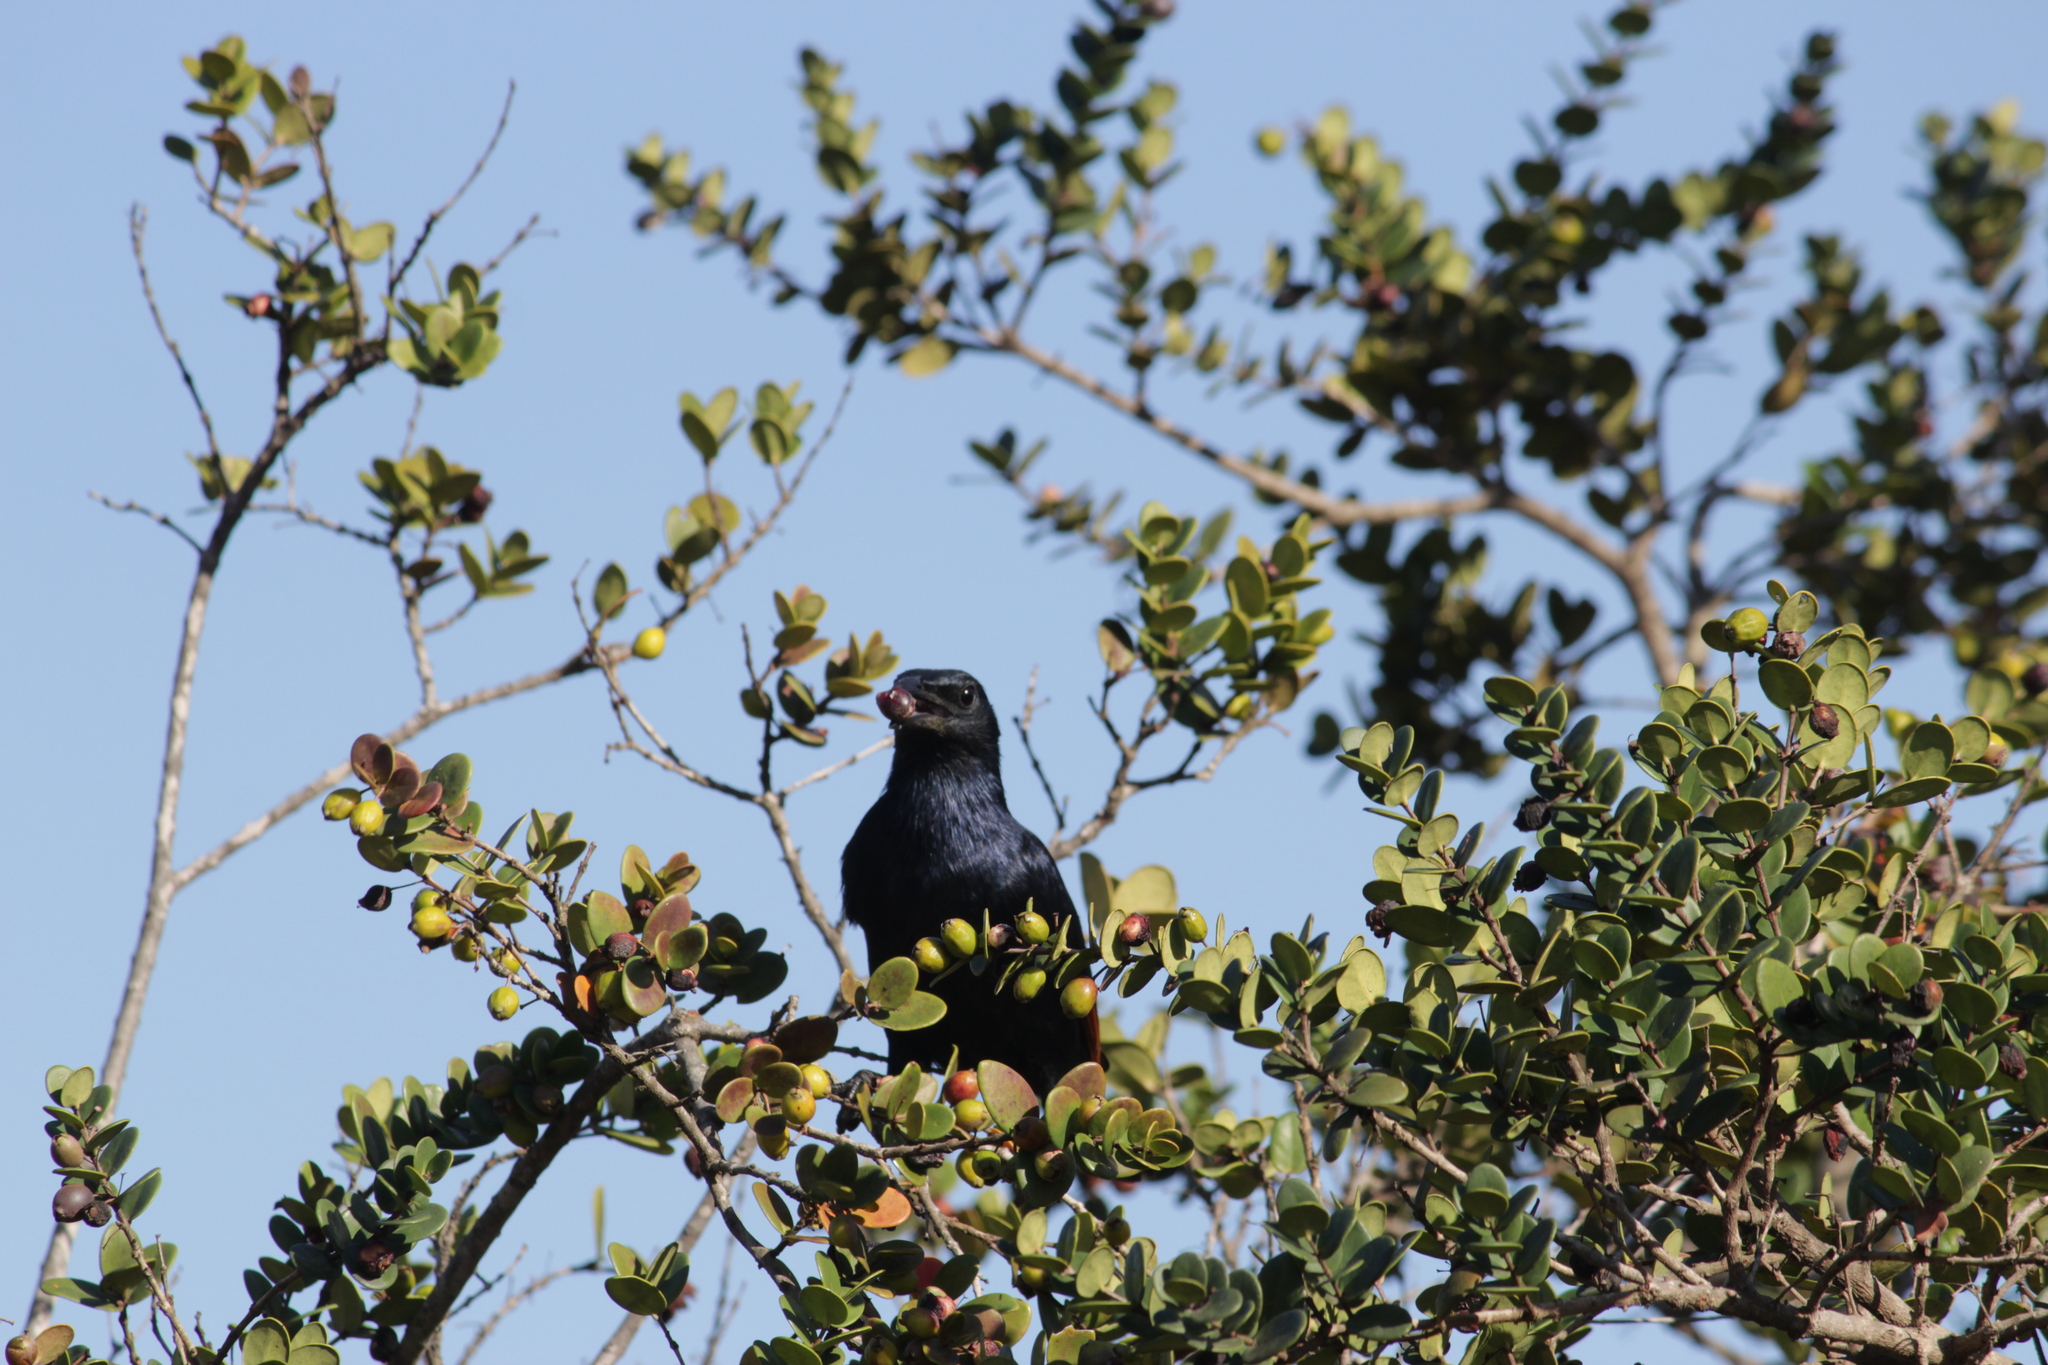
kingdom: Animalia
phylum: Chordata
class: Aves
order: Passeriformes
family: Sturnidae
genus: Onychognathus
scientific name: Onychognathus morio
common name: Red-winged starling
